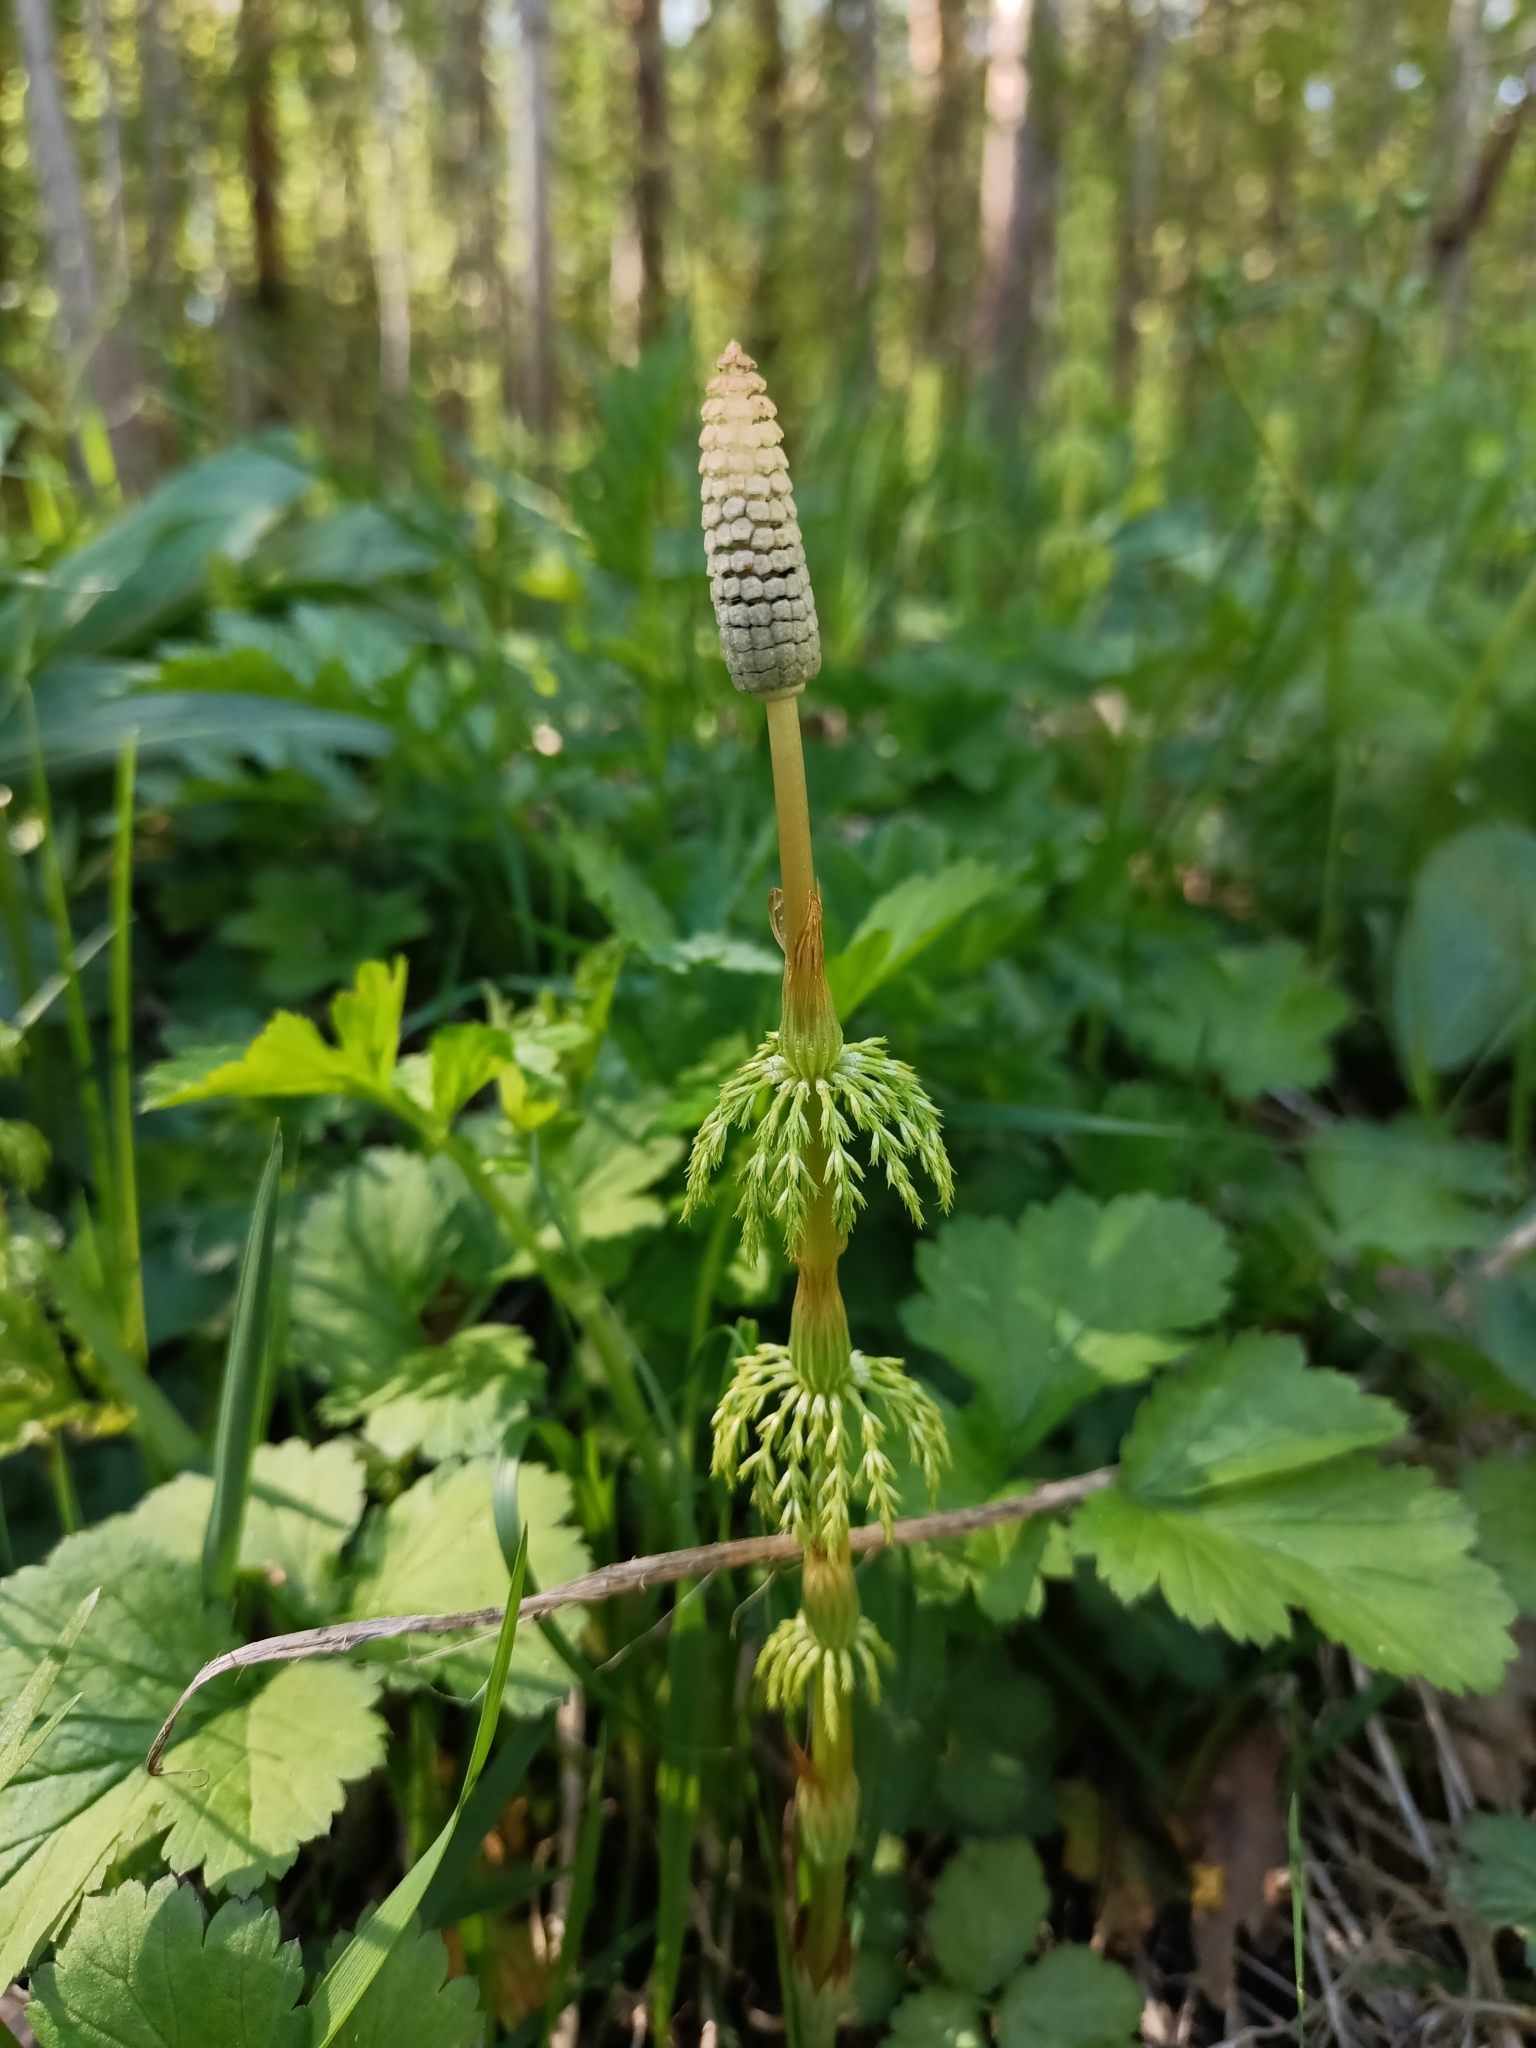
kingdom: Plantae
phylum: Tracheophyta
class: Polypodiopsida
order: Equisetales
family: Equisetaceae
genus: Equisetum
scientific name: Equisetum sylvaticum
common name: Wood horsetail
